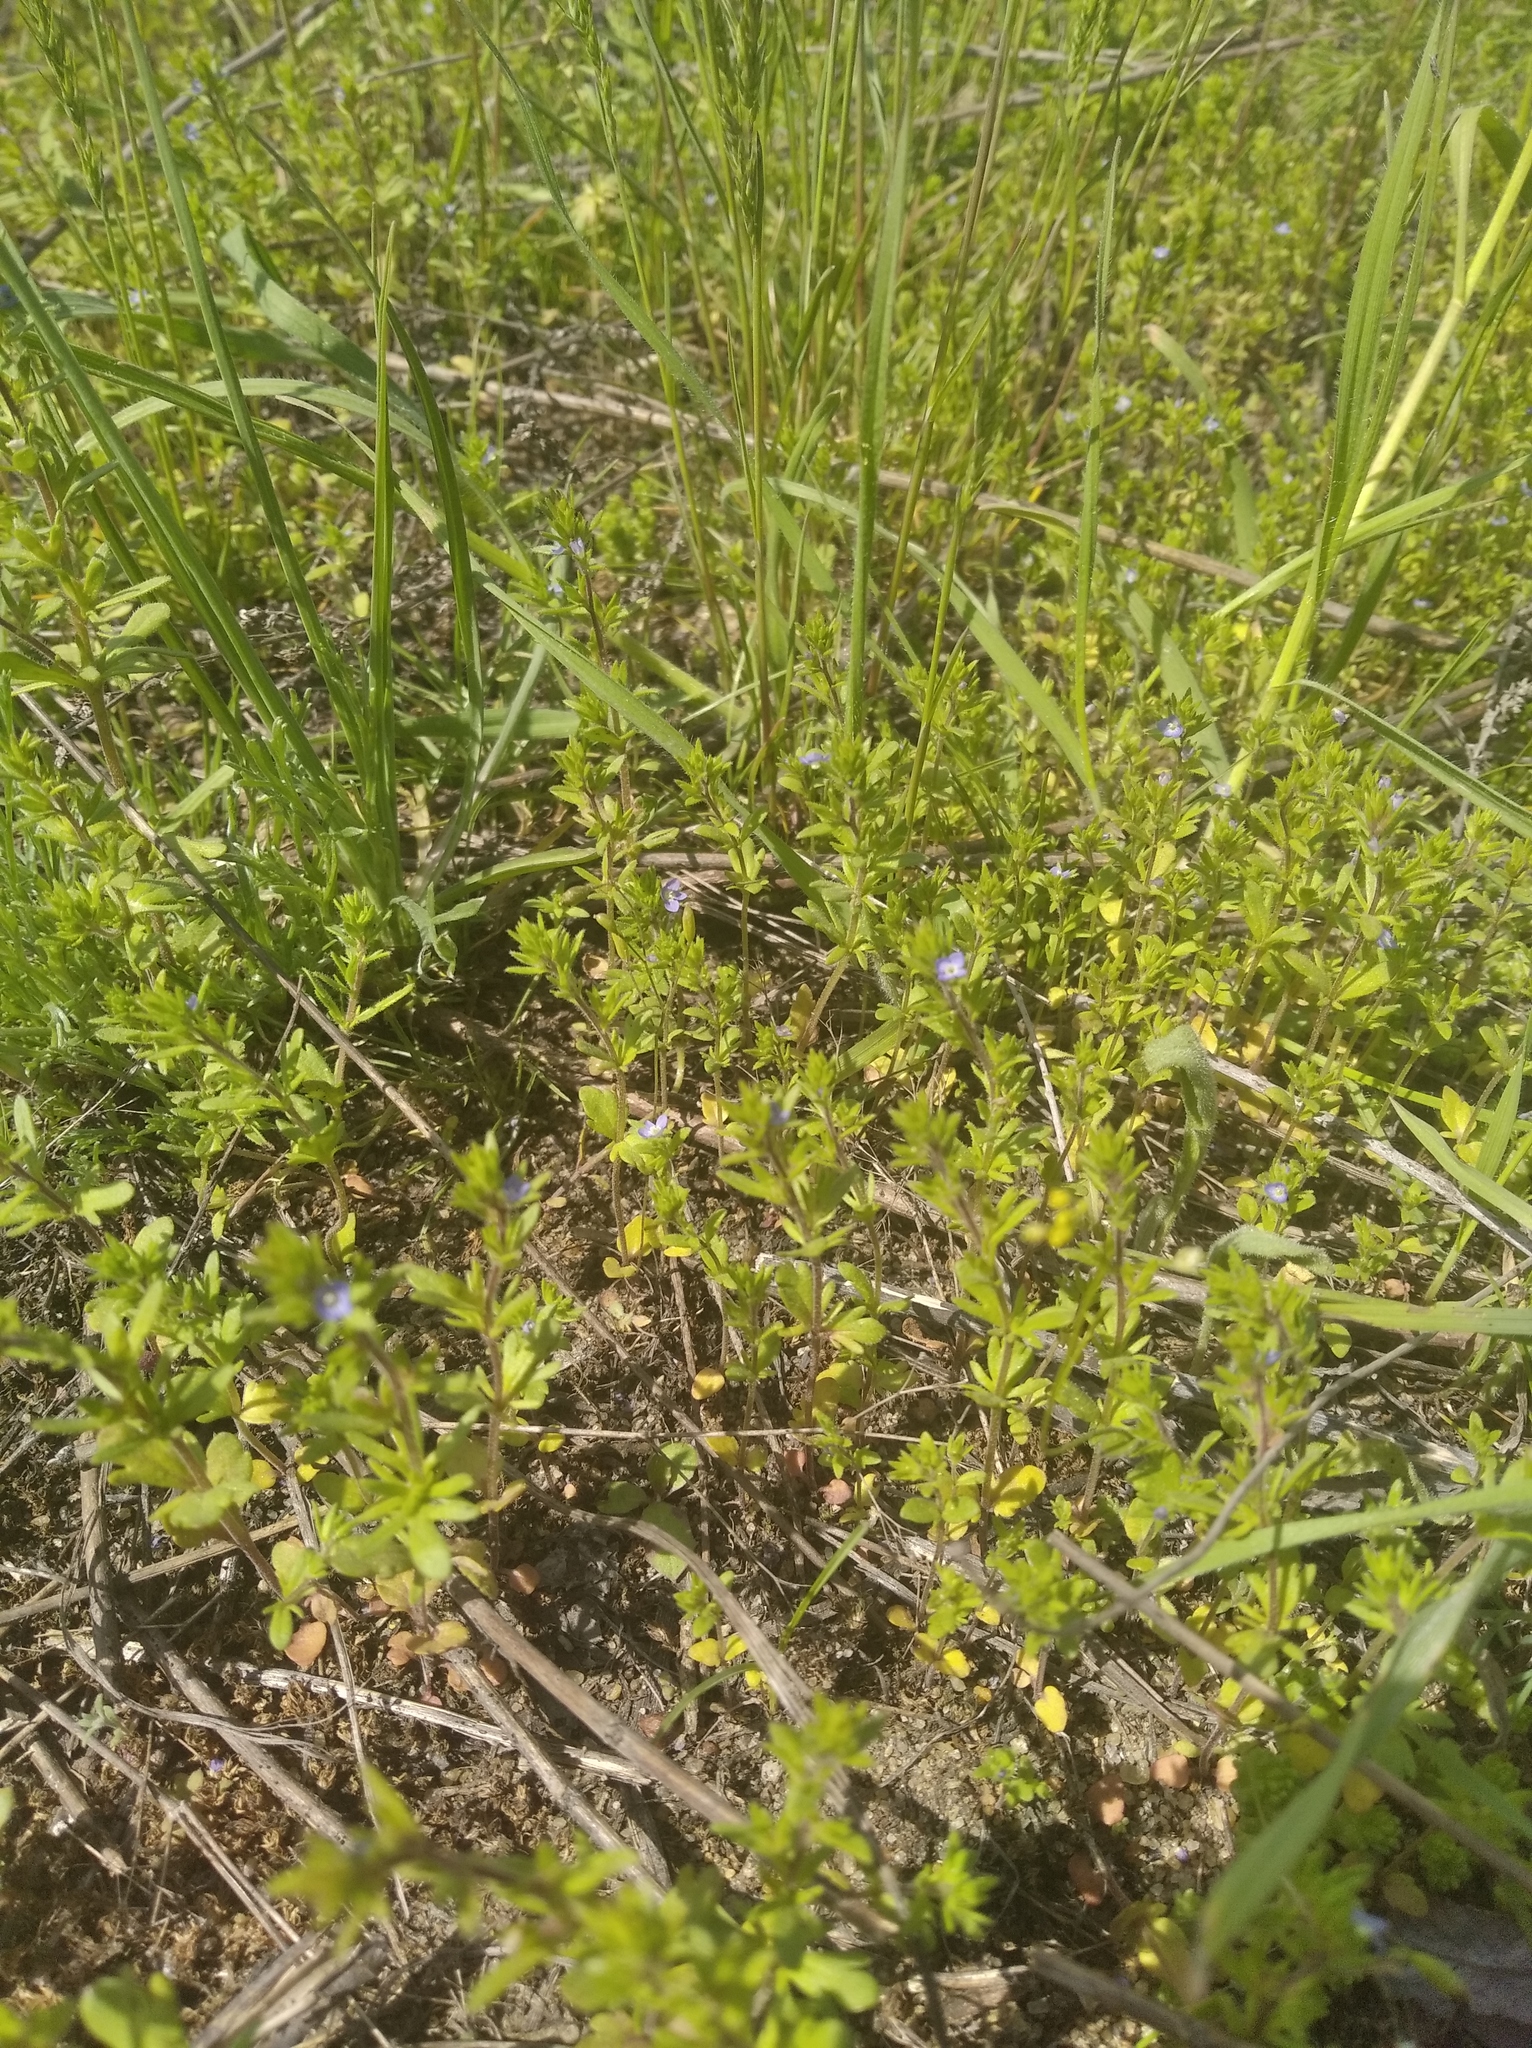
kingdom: Plantae
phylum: Tracheophyta
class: Magnoliopsida
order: Lamiales
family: Plantaginaceae
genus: Veronica
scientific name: Veronica verna
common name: Spring speedwell
